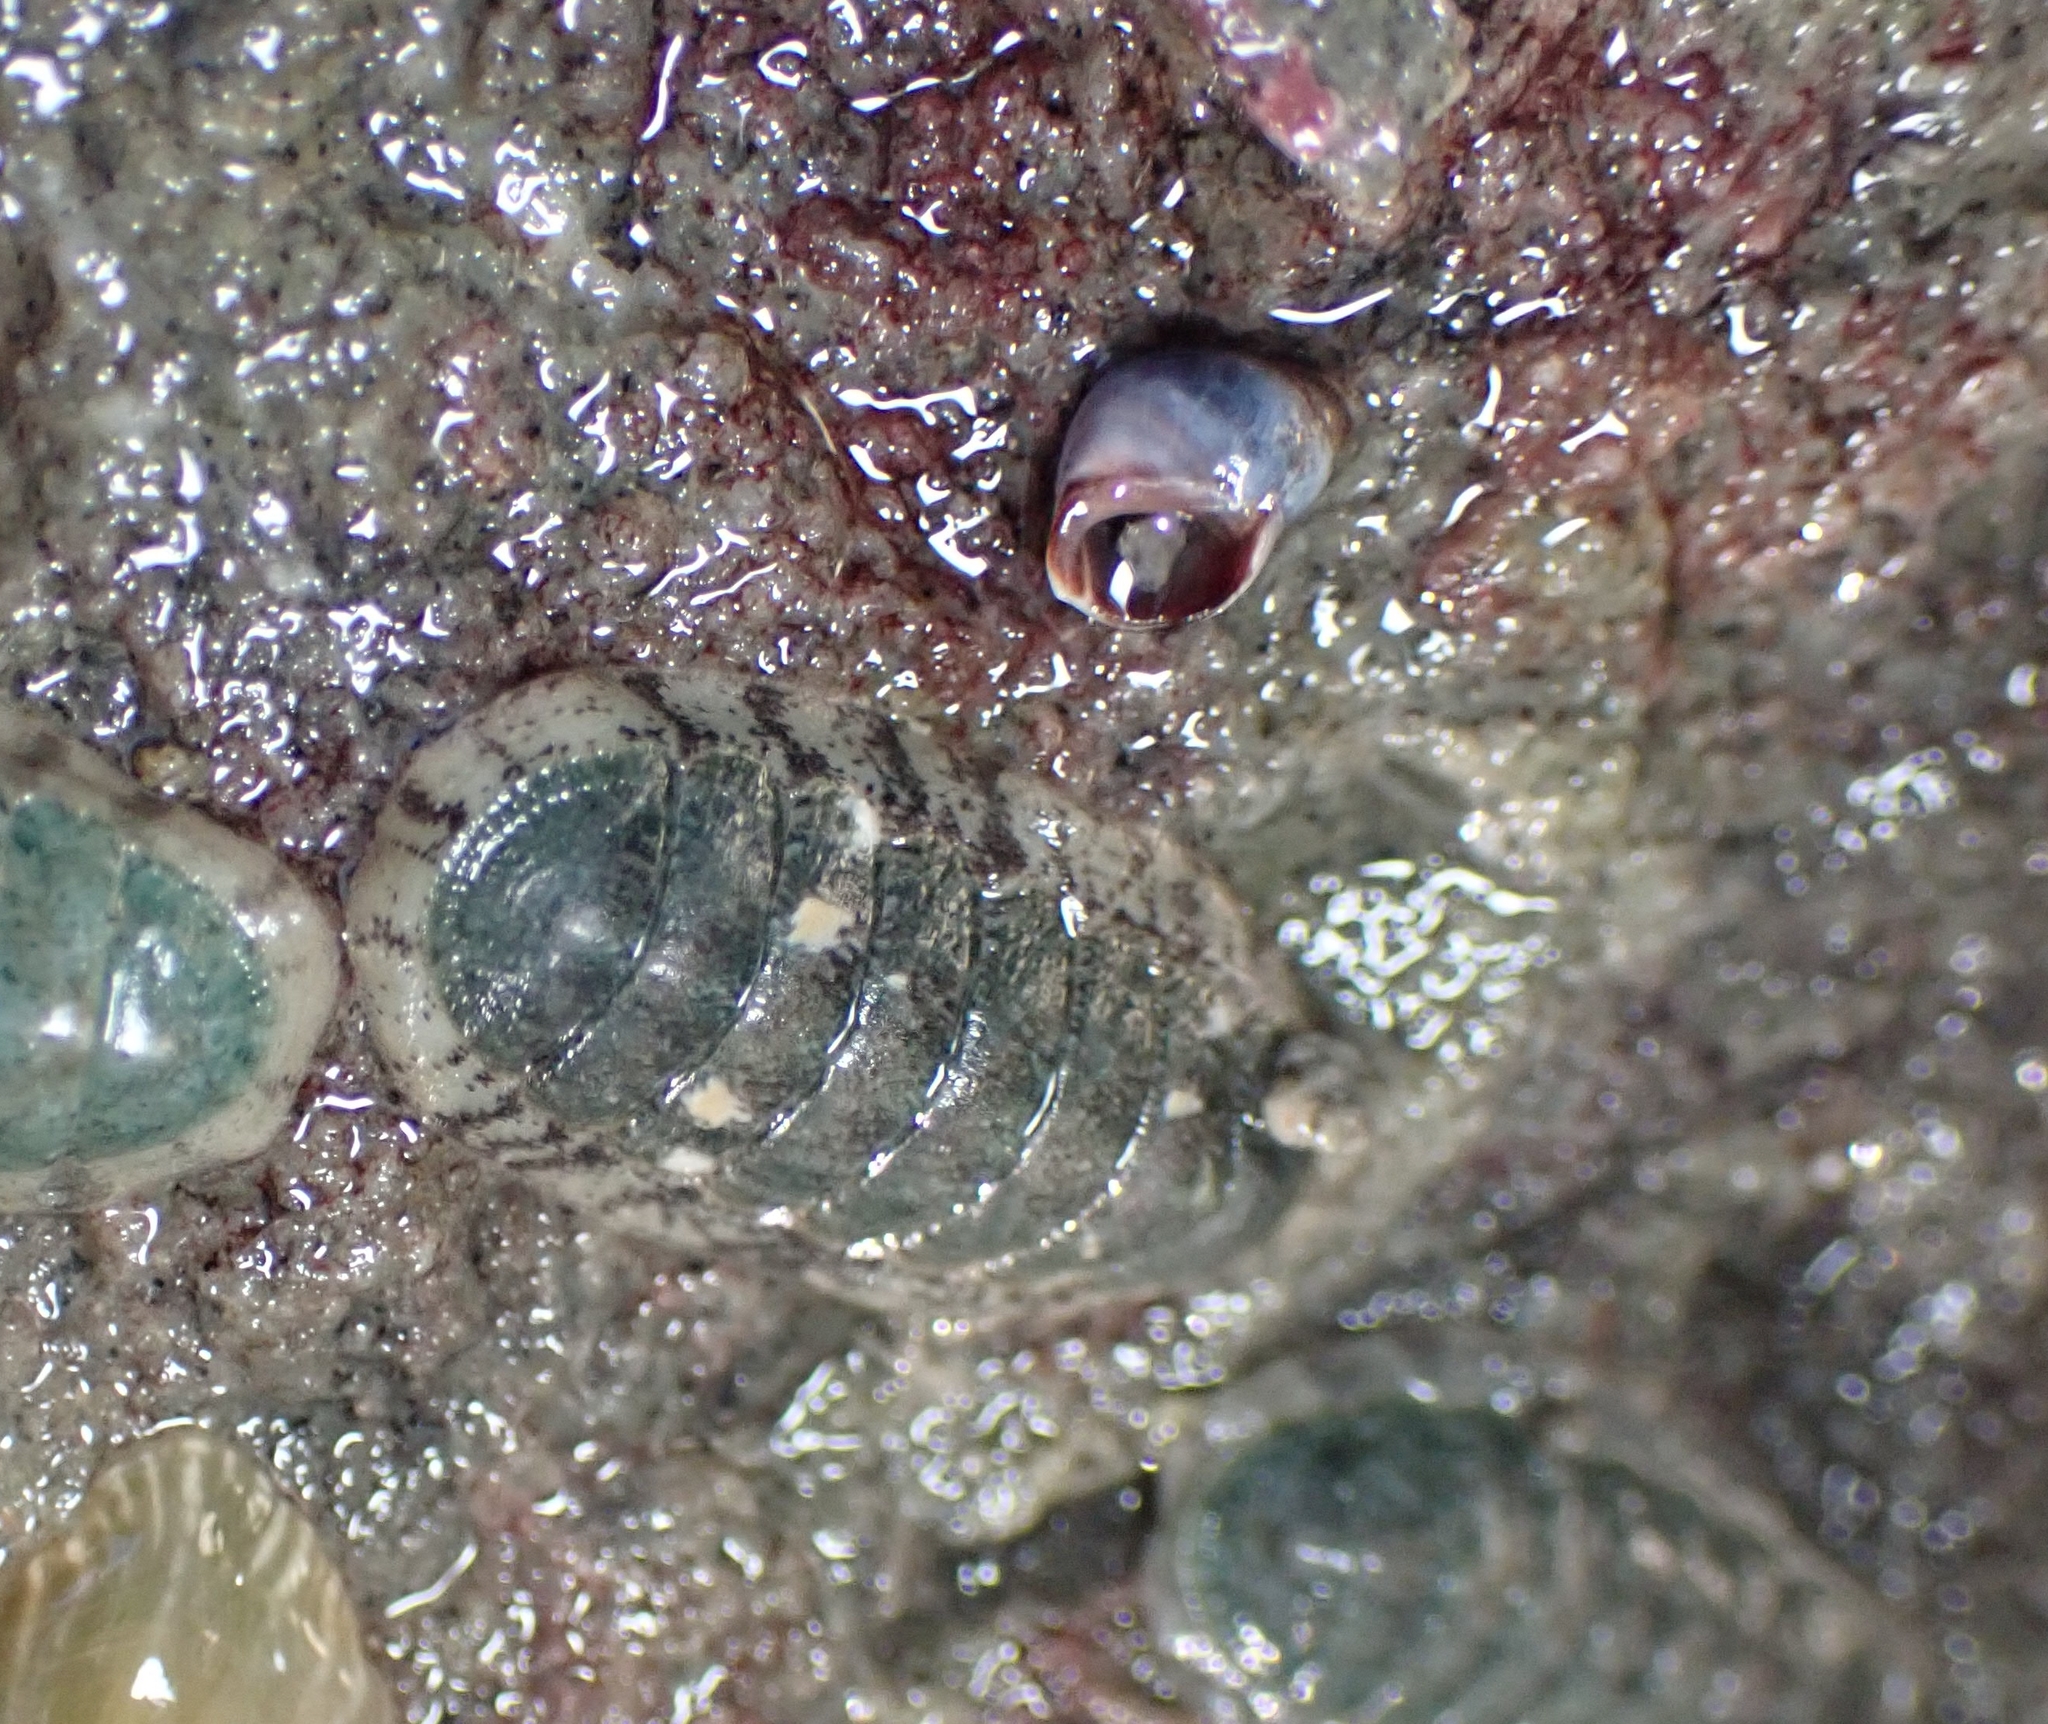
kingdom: Animalia
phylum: Mollusca
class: Polyplacophora
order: Chitonida
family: Ischnochitonidae
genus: Ischnochiton
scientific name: Ischnochiton maorianus
